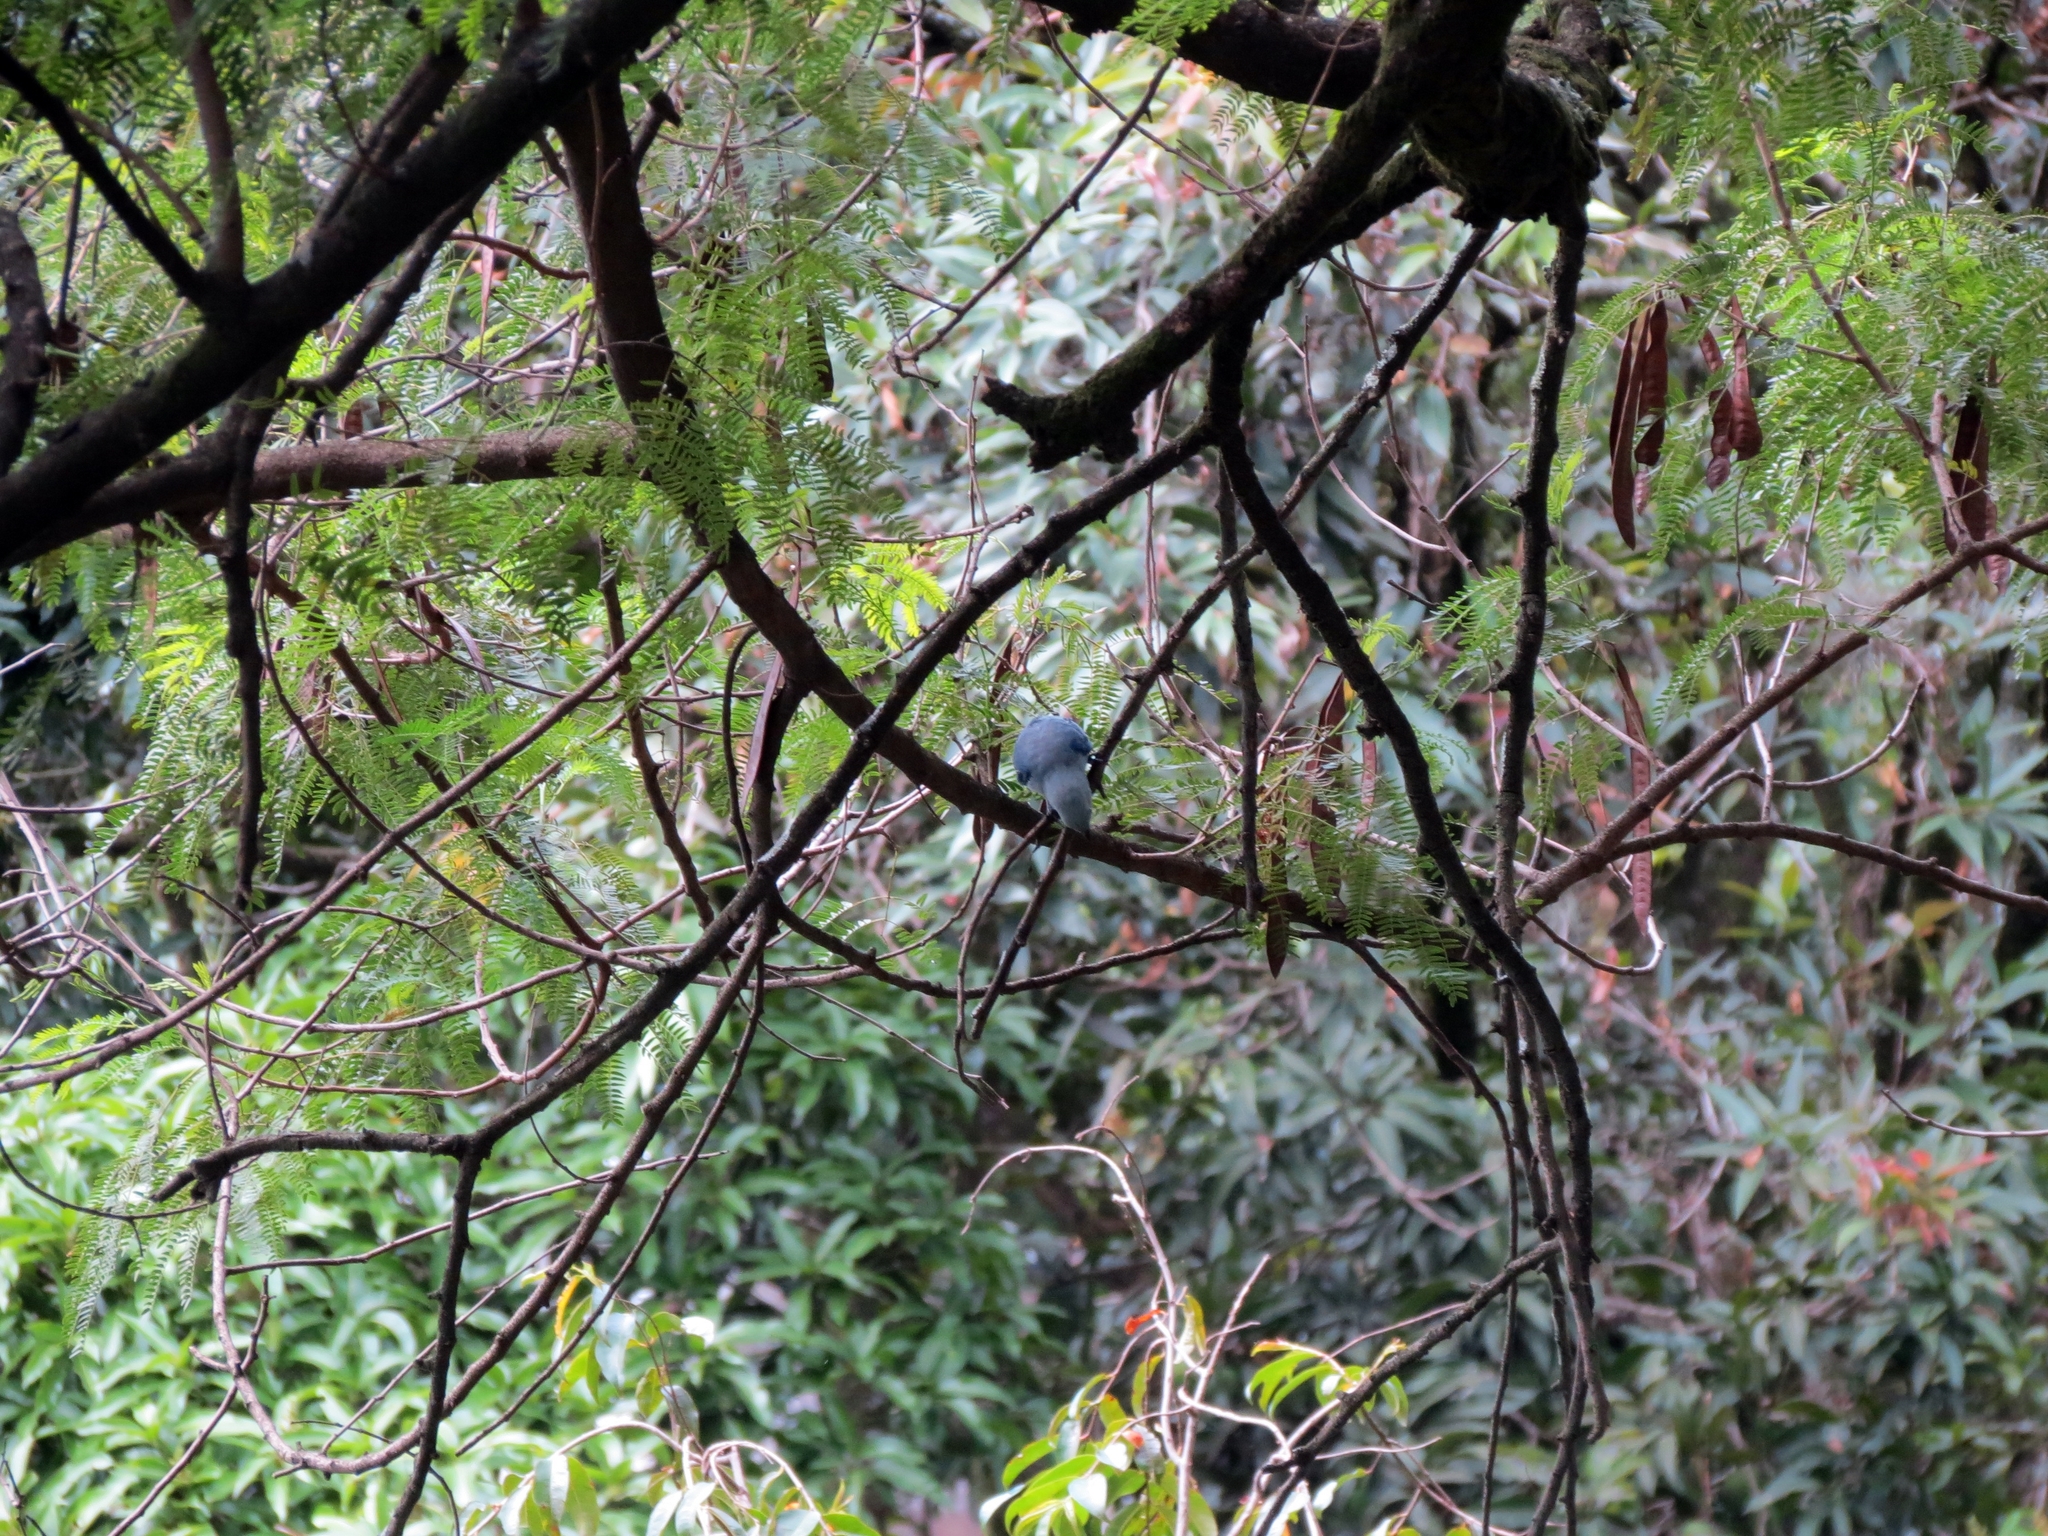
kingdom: Animalia
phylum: Chordata
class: Aves
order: Passeriformes
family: Thraupidae
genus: Thraupis
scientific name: Thraupis episcopus
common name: Blue-grey tanager
